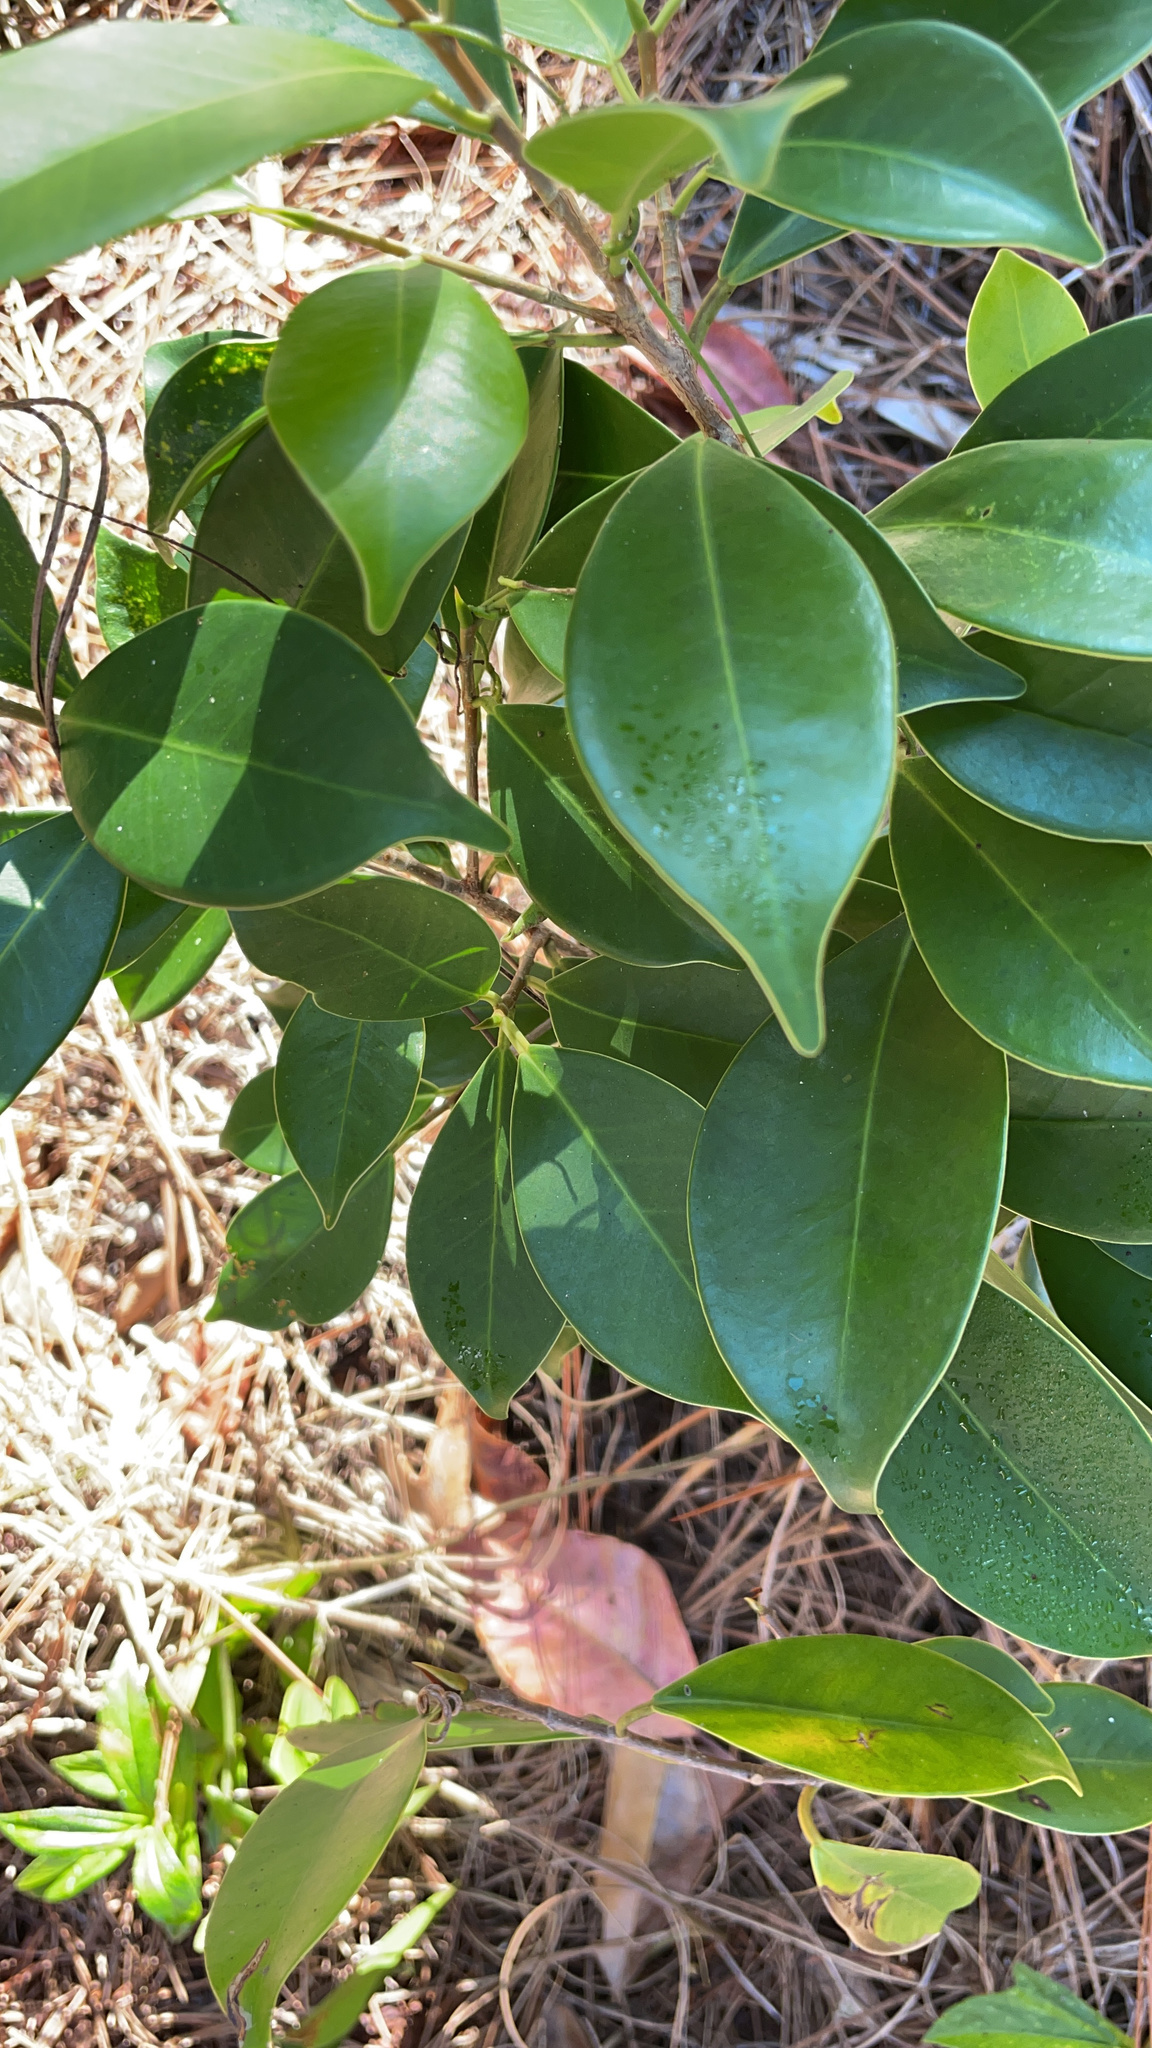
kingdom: Plantae
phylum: Tracheophyta
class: Magnoliopsida
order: Rosales
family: Moraceae
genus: Ficus
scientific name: Ficus microcarpa
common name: Chinese banyan
